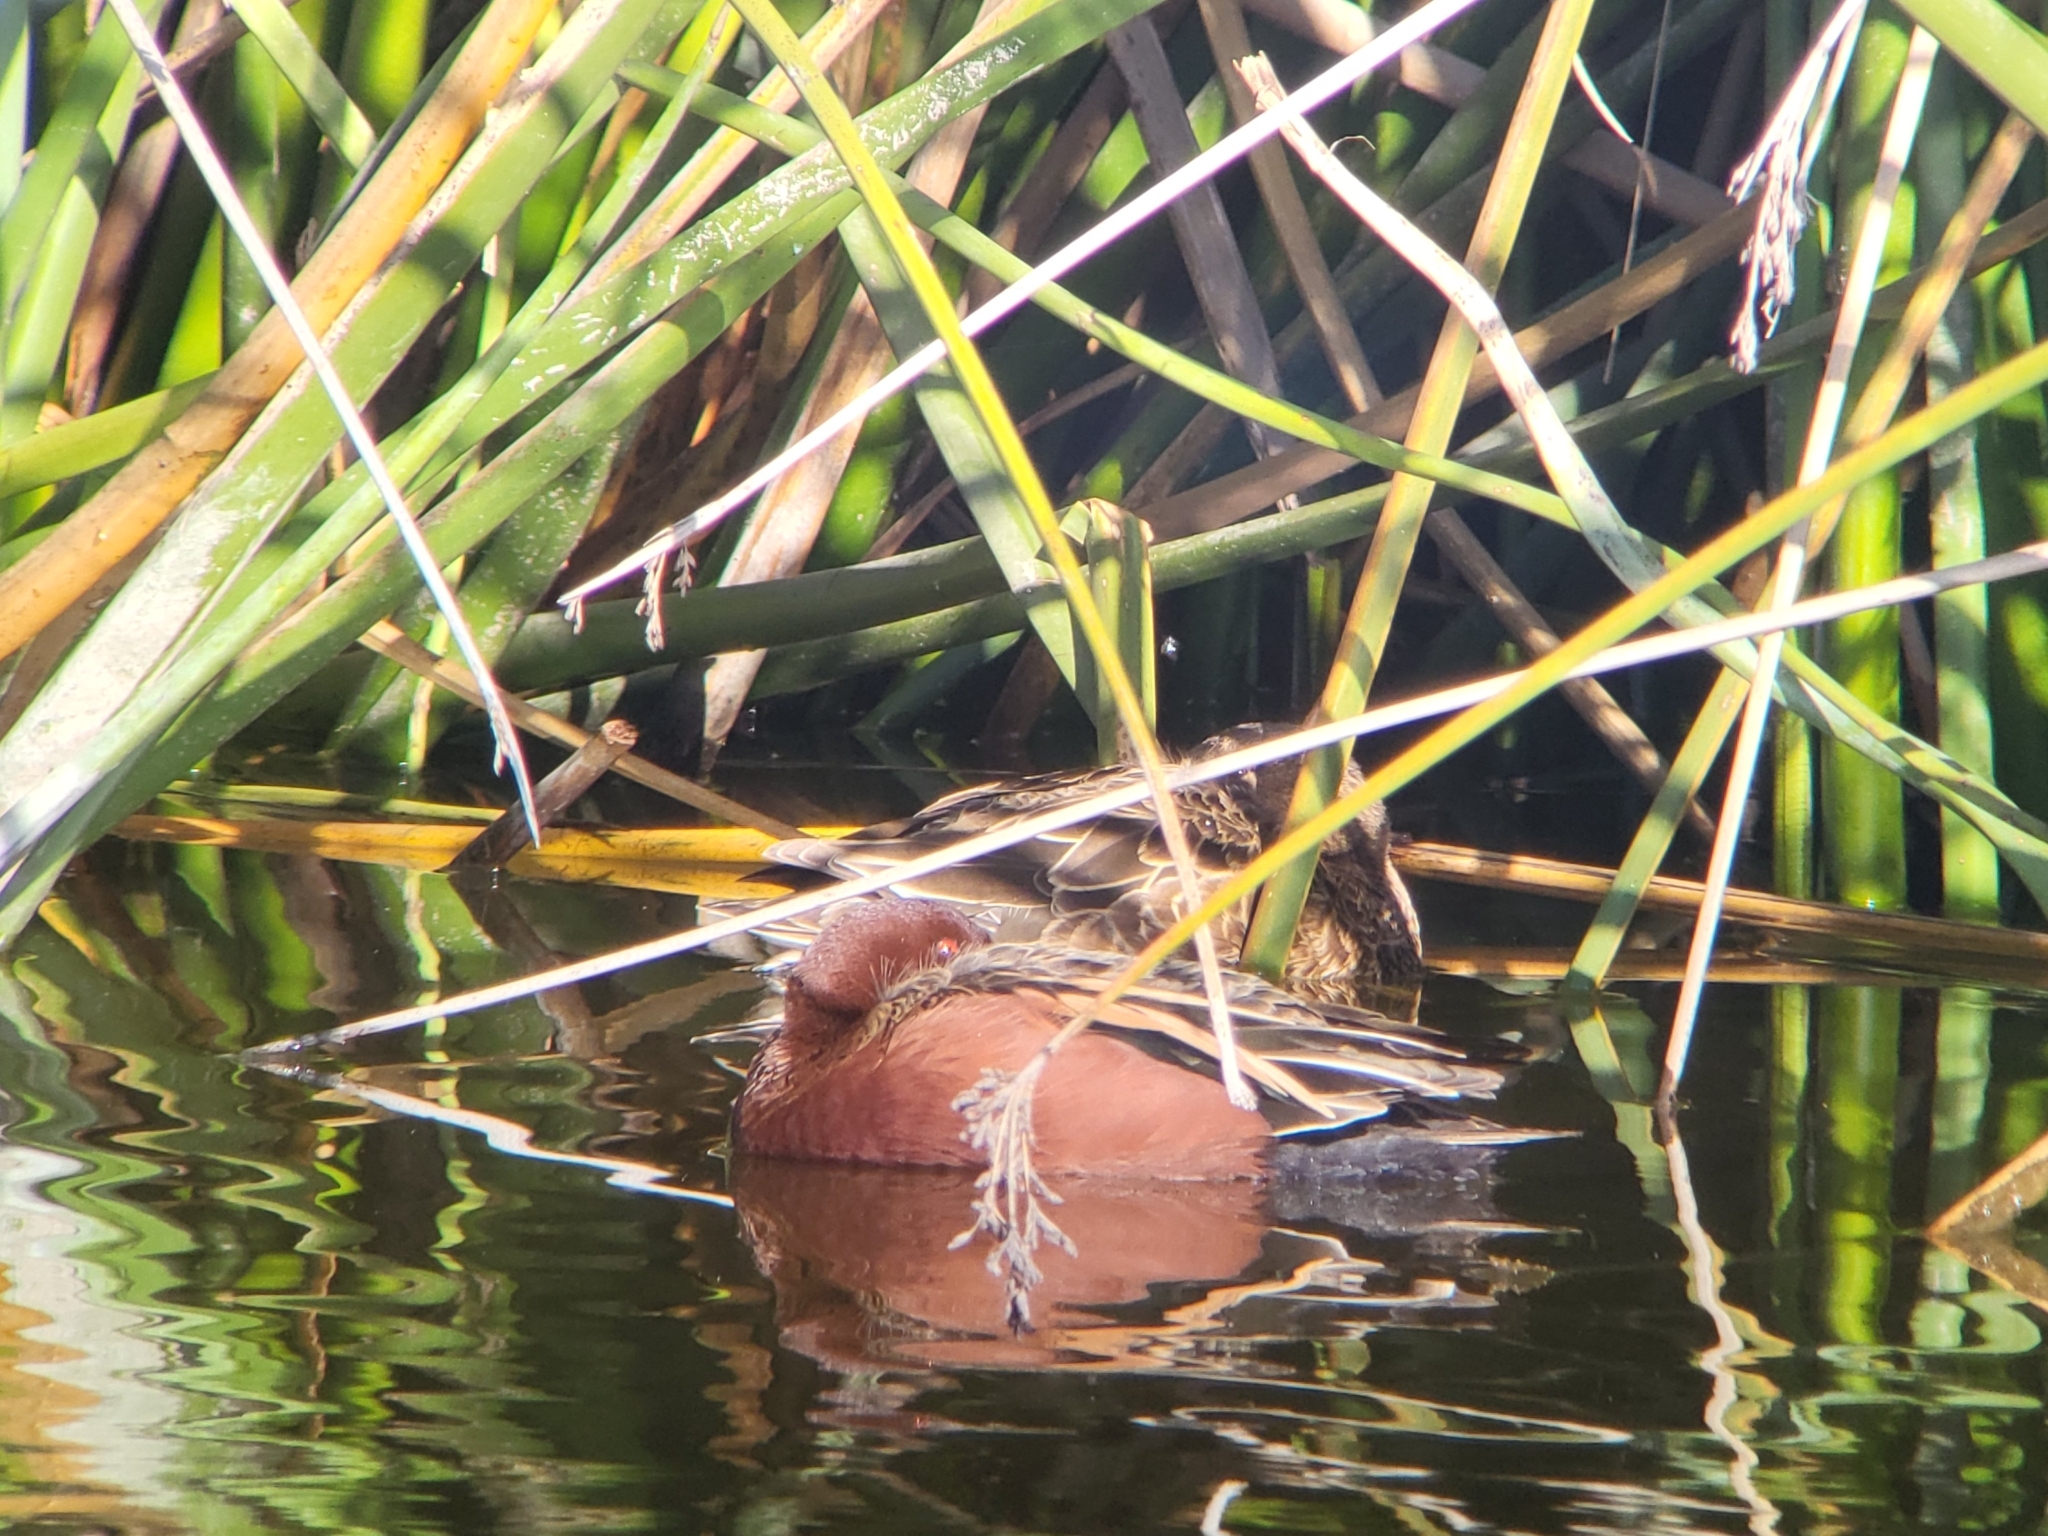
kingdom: Animalia
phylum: Chordata
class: Aves
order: Anseriformes
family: Anatidae
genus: Spatula
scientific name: Spatula cyanoptera
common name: Cinnamon teal
